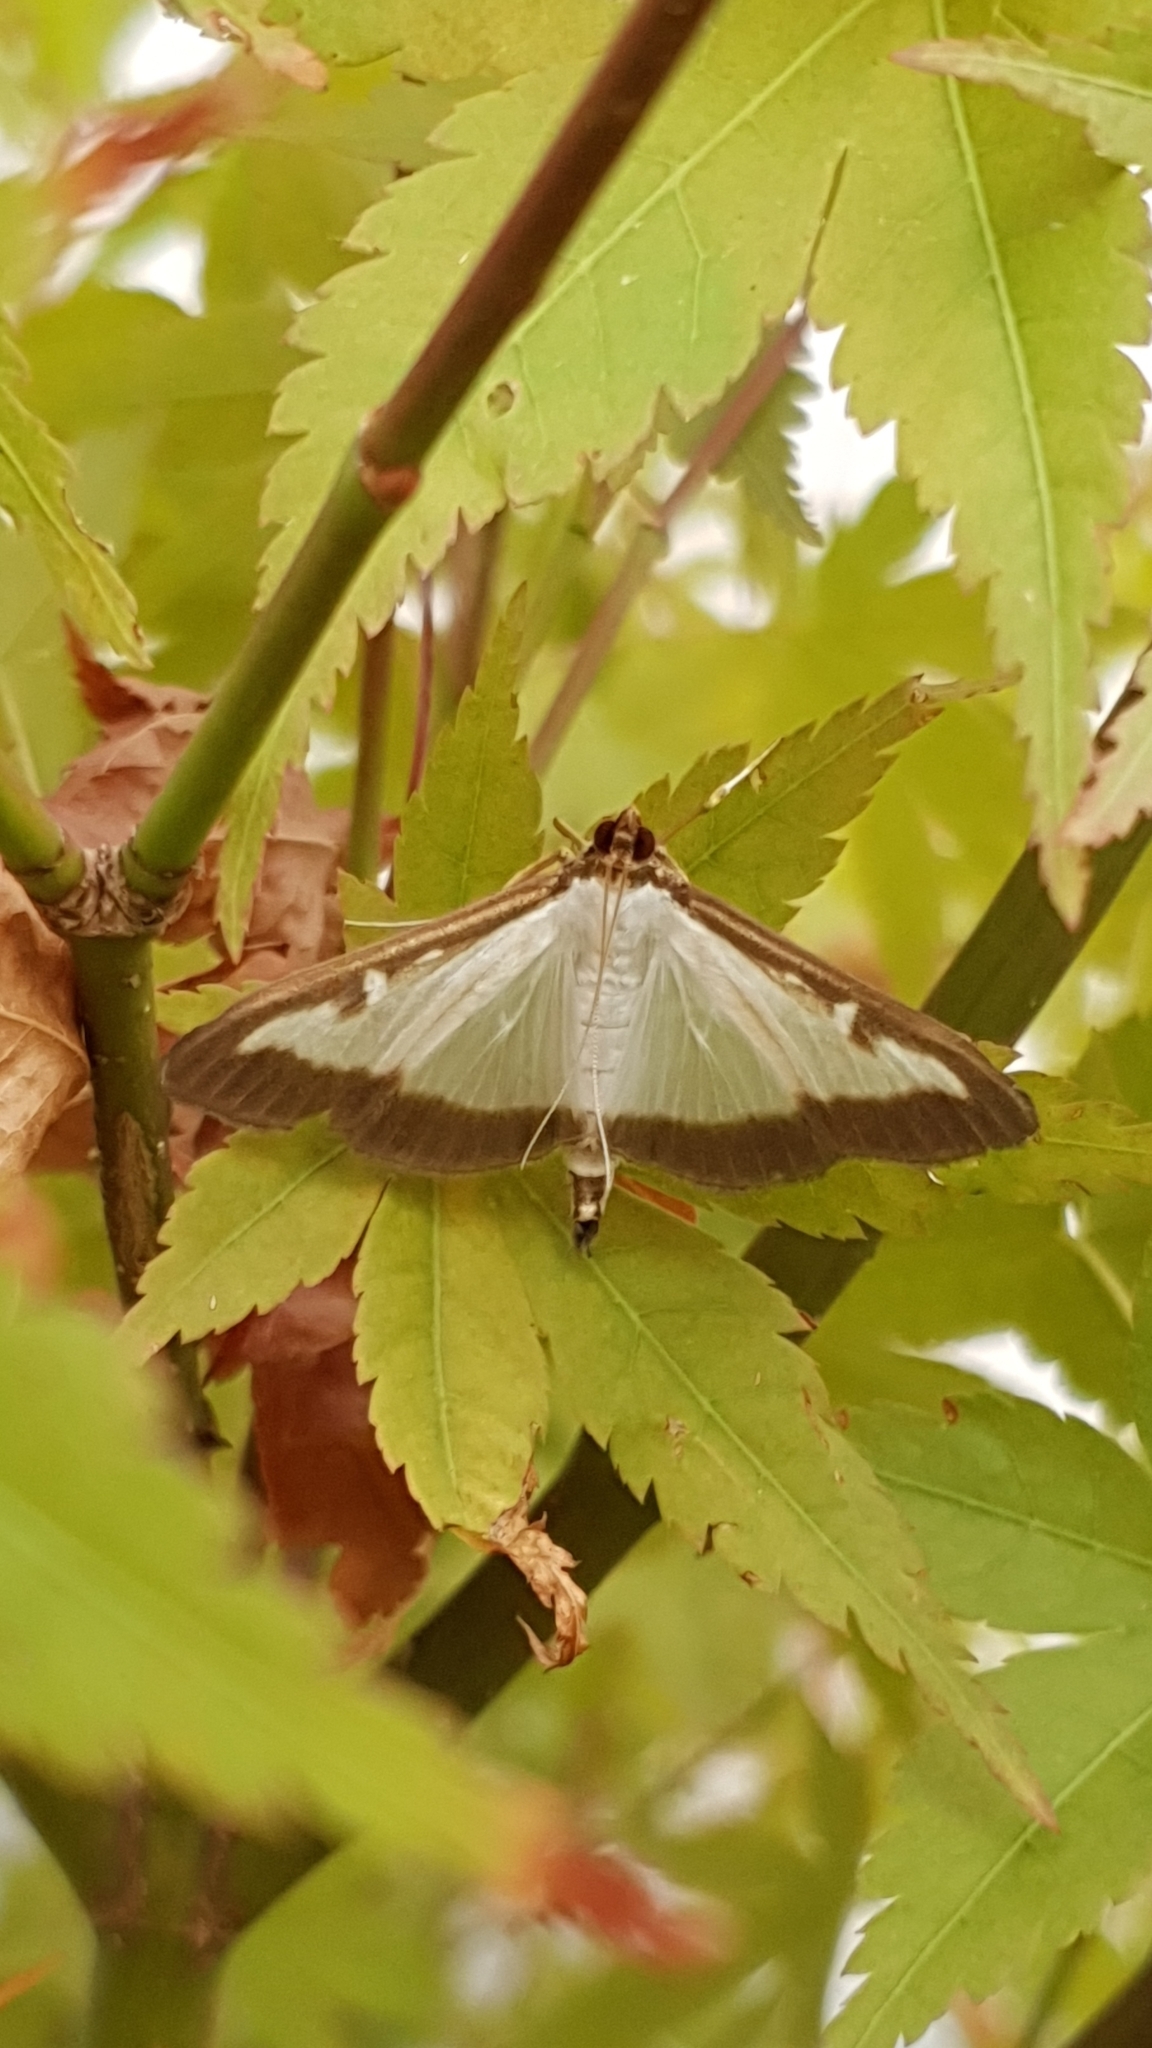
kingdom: Animalia
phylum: Arthropoda
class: Insecta
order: Lepidoptera
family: Crambidae
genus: Cydalima
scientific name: Cydalima perspectalis
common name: Box tree moth
